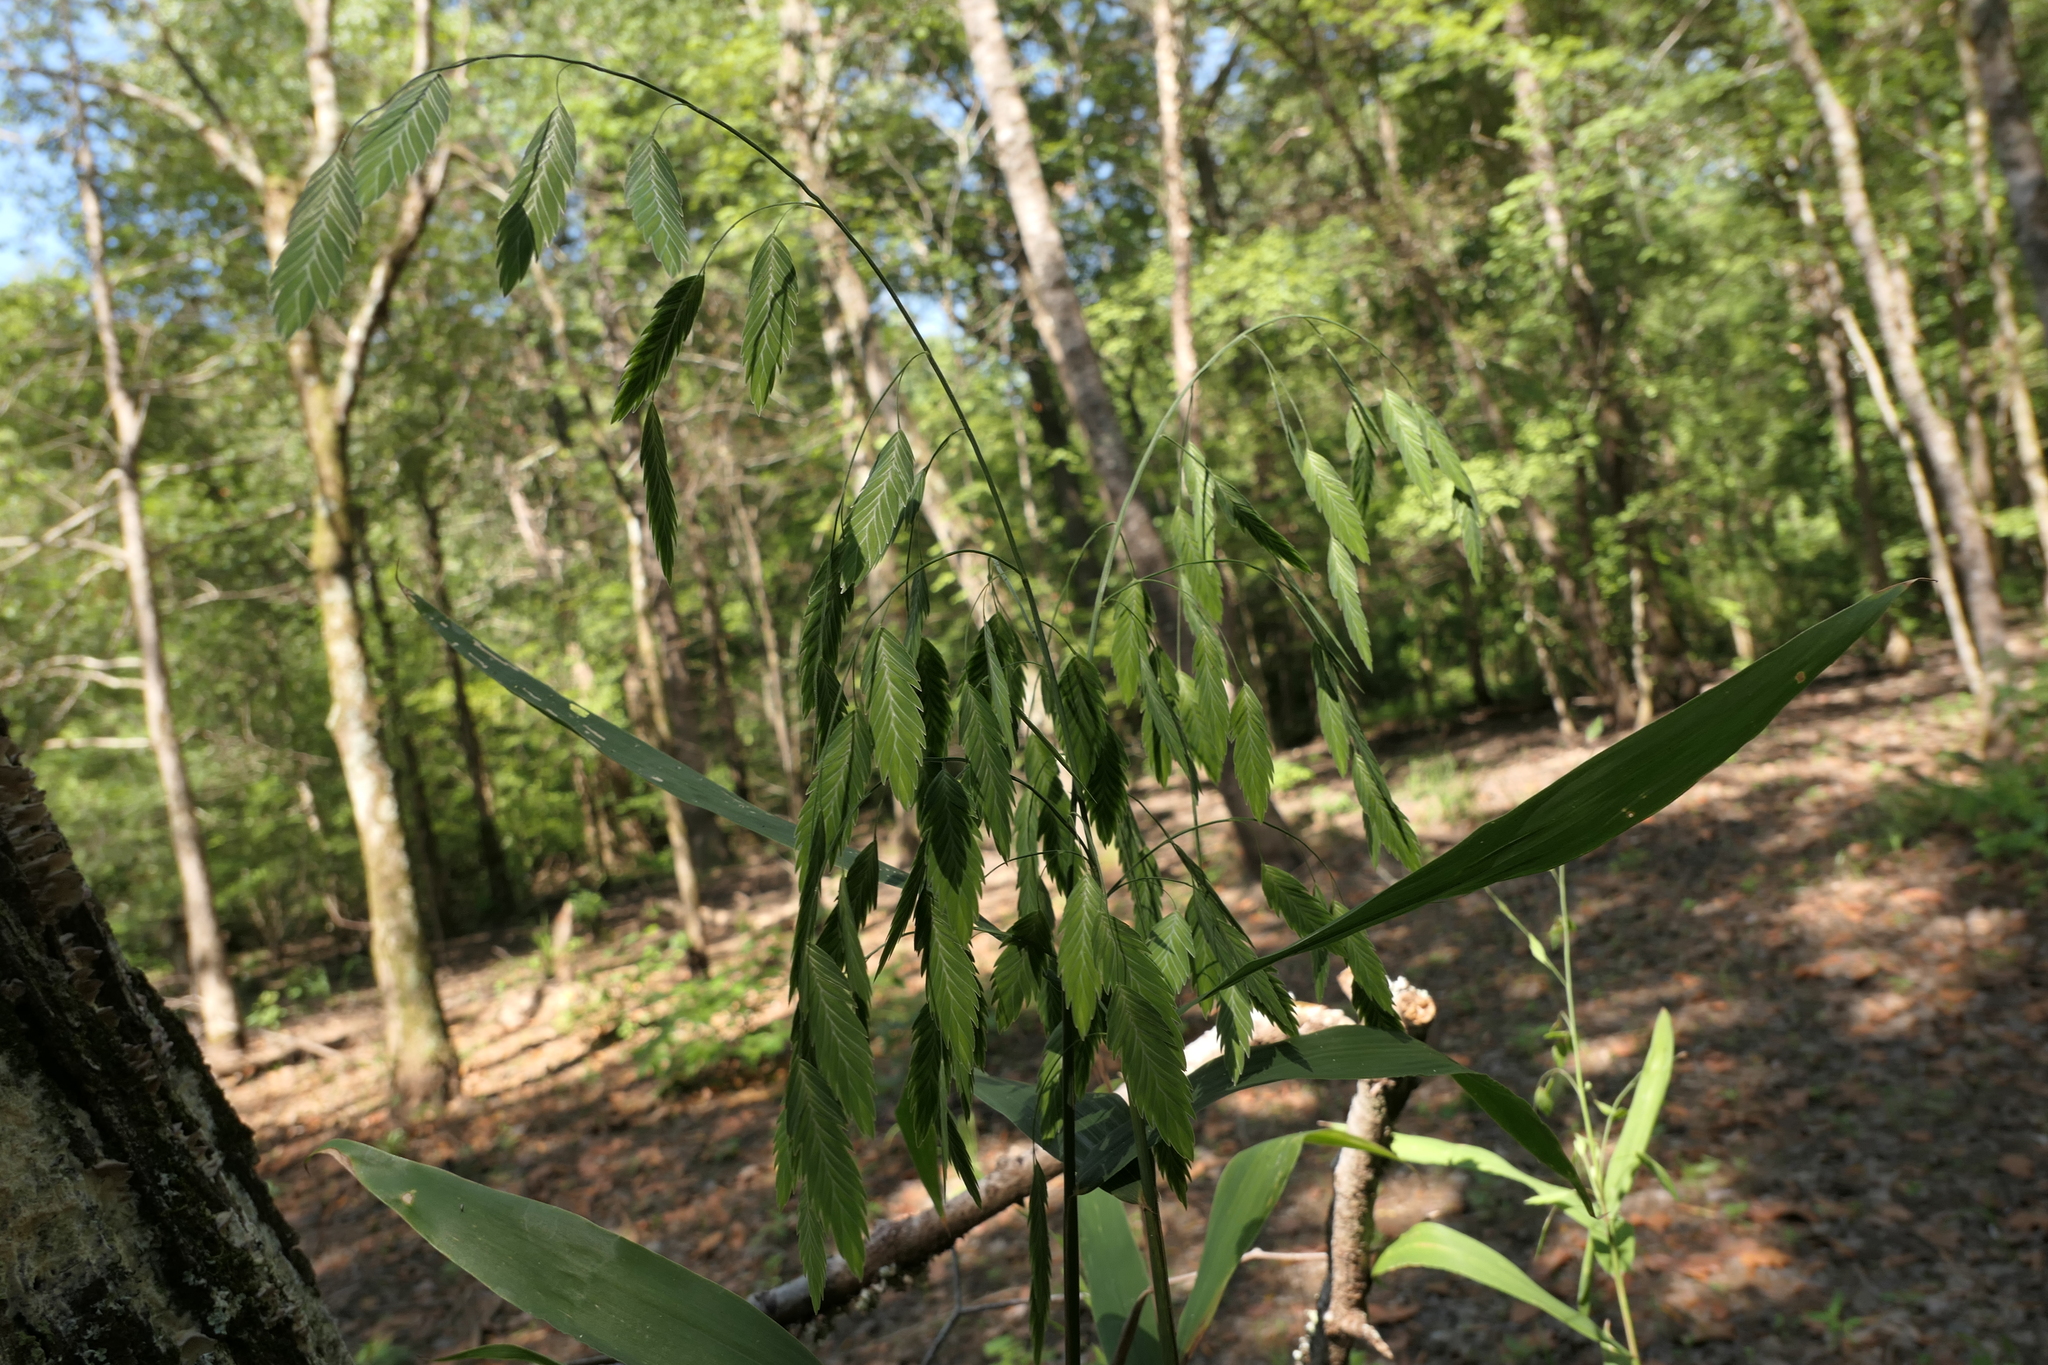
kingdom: Plantae
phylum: Tracheophyta
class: Liliopsida
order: Poales
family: Poaceae
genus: Chasmanthium
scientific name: Chasmanthium latifolium
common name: Broad-leaved chasmanthium
